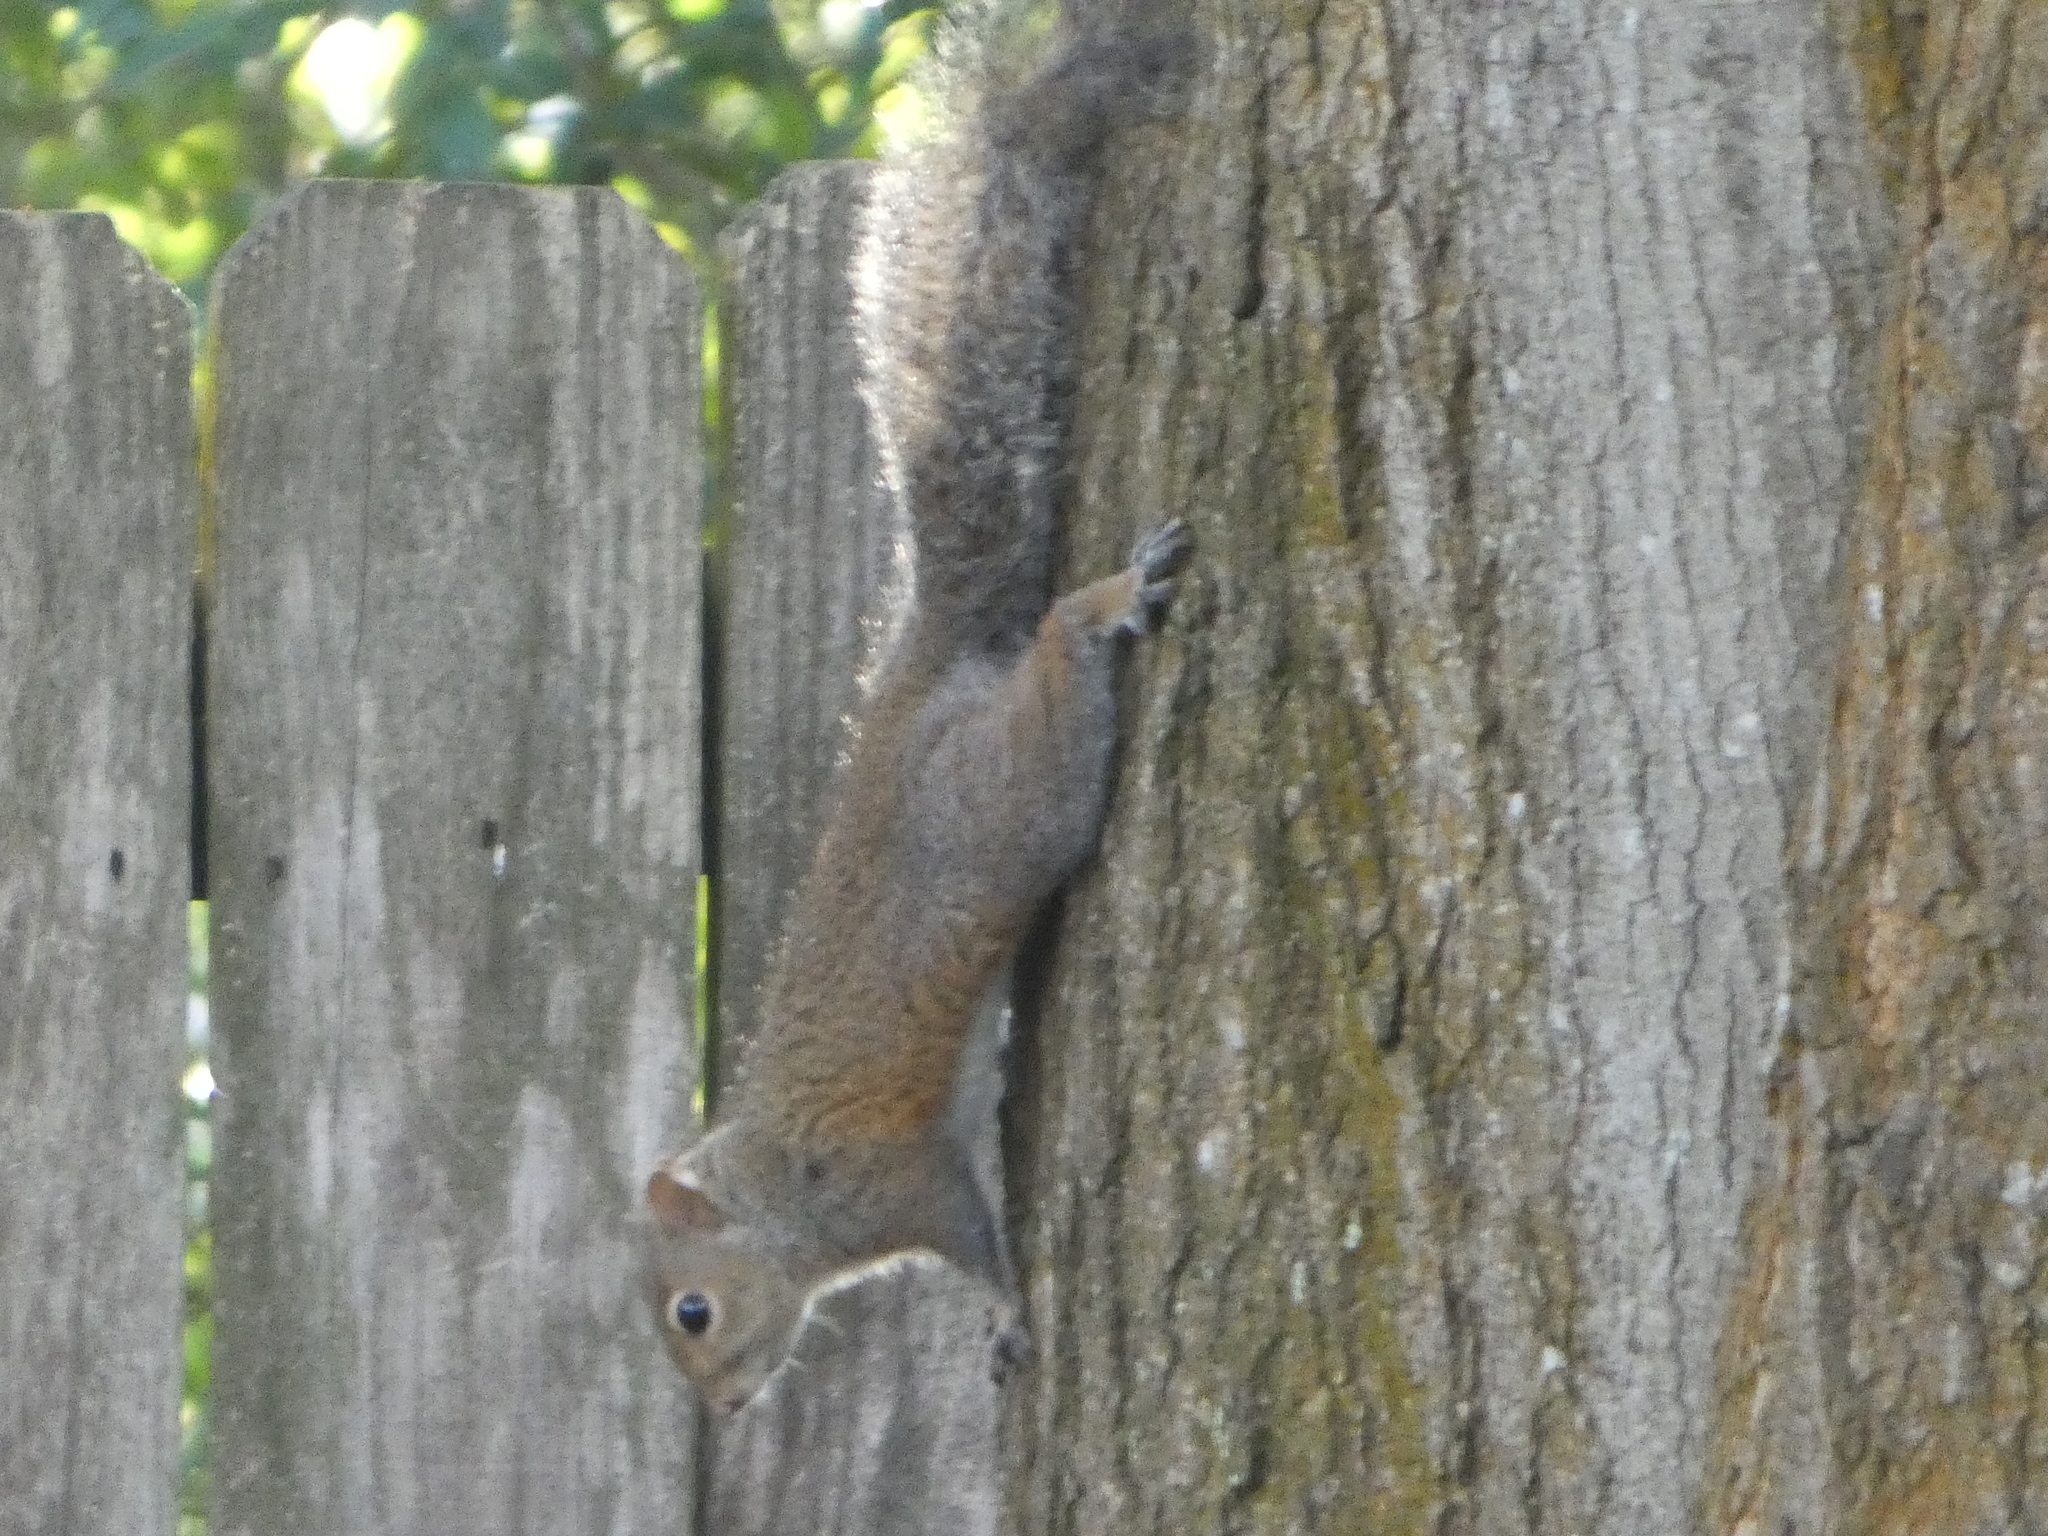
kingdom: Animalia
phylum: Chordata
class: Mammalia
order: Rodentia
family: Sciuridae
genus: Sciurus
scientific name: Sciurus carolinensis
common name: Eastern gray squirrel
